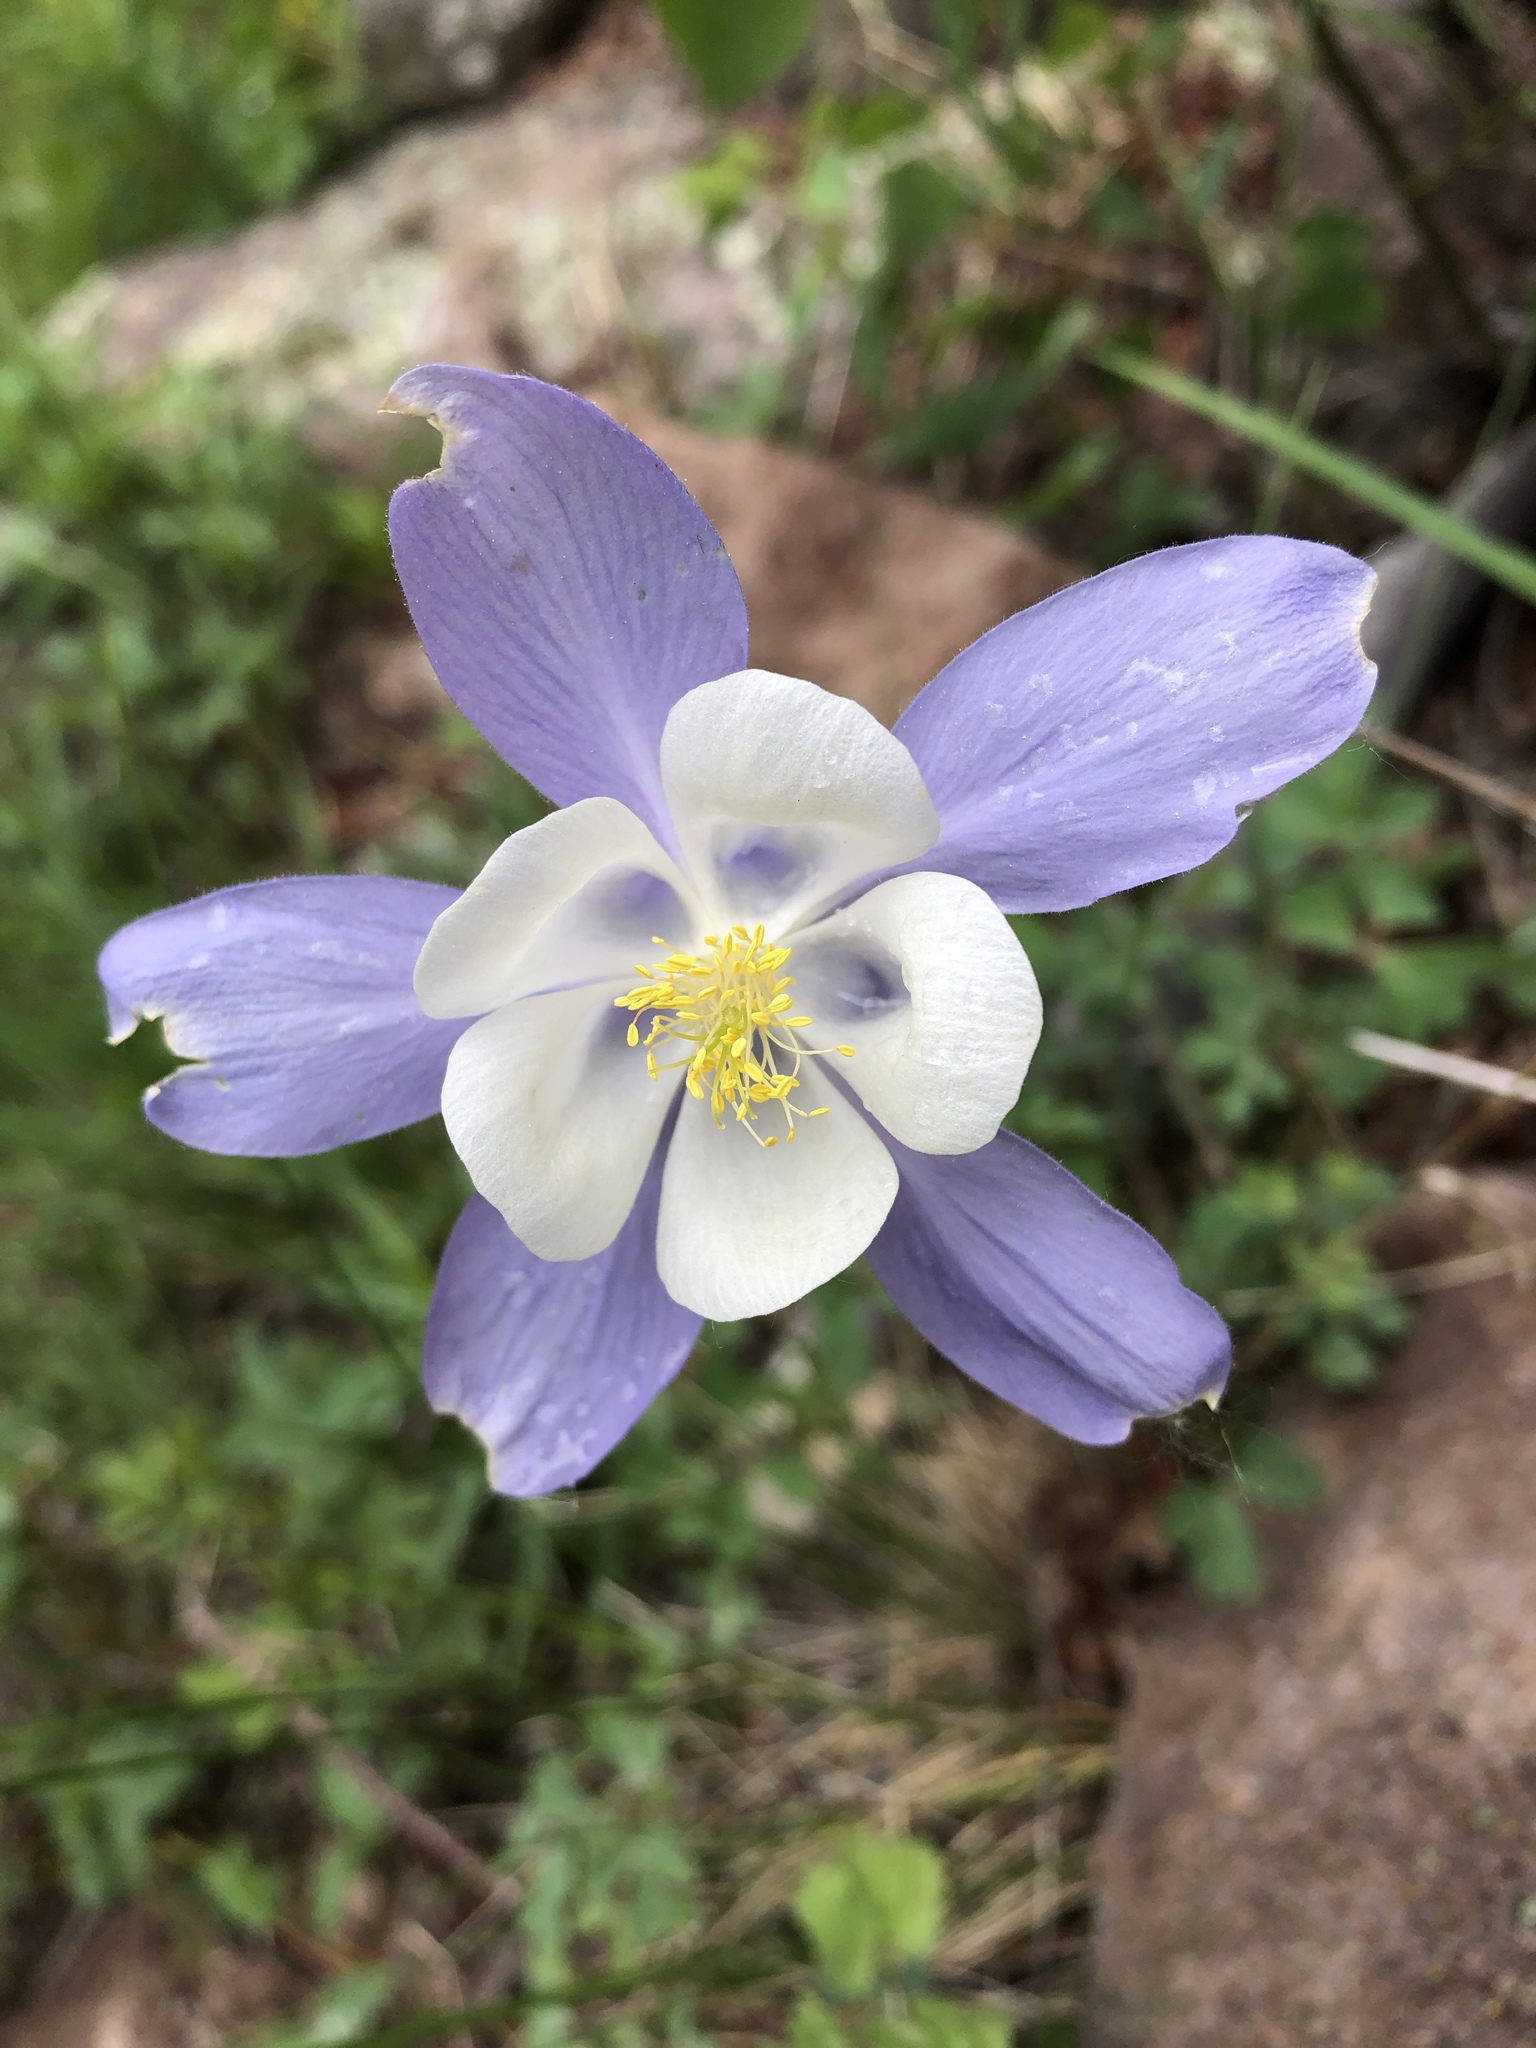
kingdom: Plantae
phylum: Tracheophyta
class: Magnoliopsida
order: Ranunculales
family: Ranunculaceae
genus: Aquilegia
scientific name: Aquilegia coerulea
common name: Rocky mountain columbine
